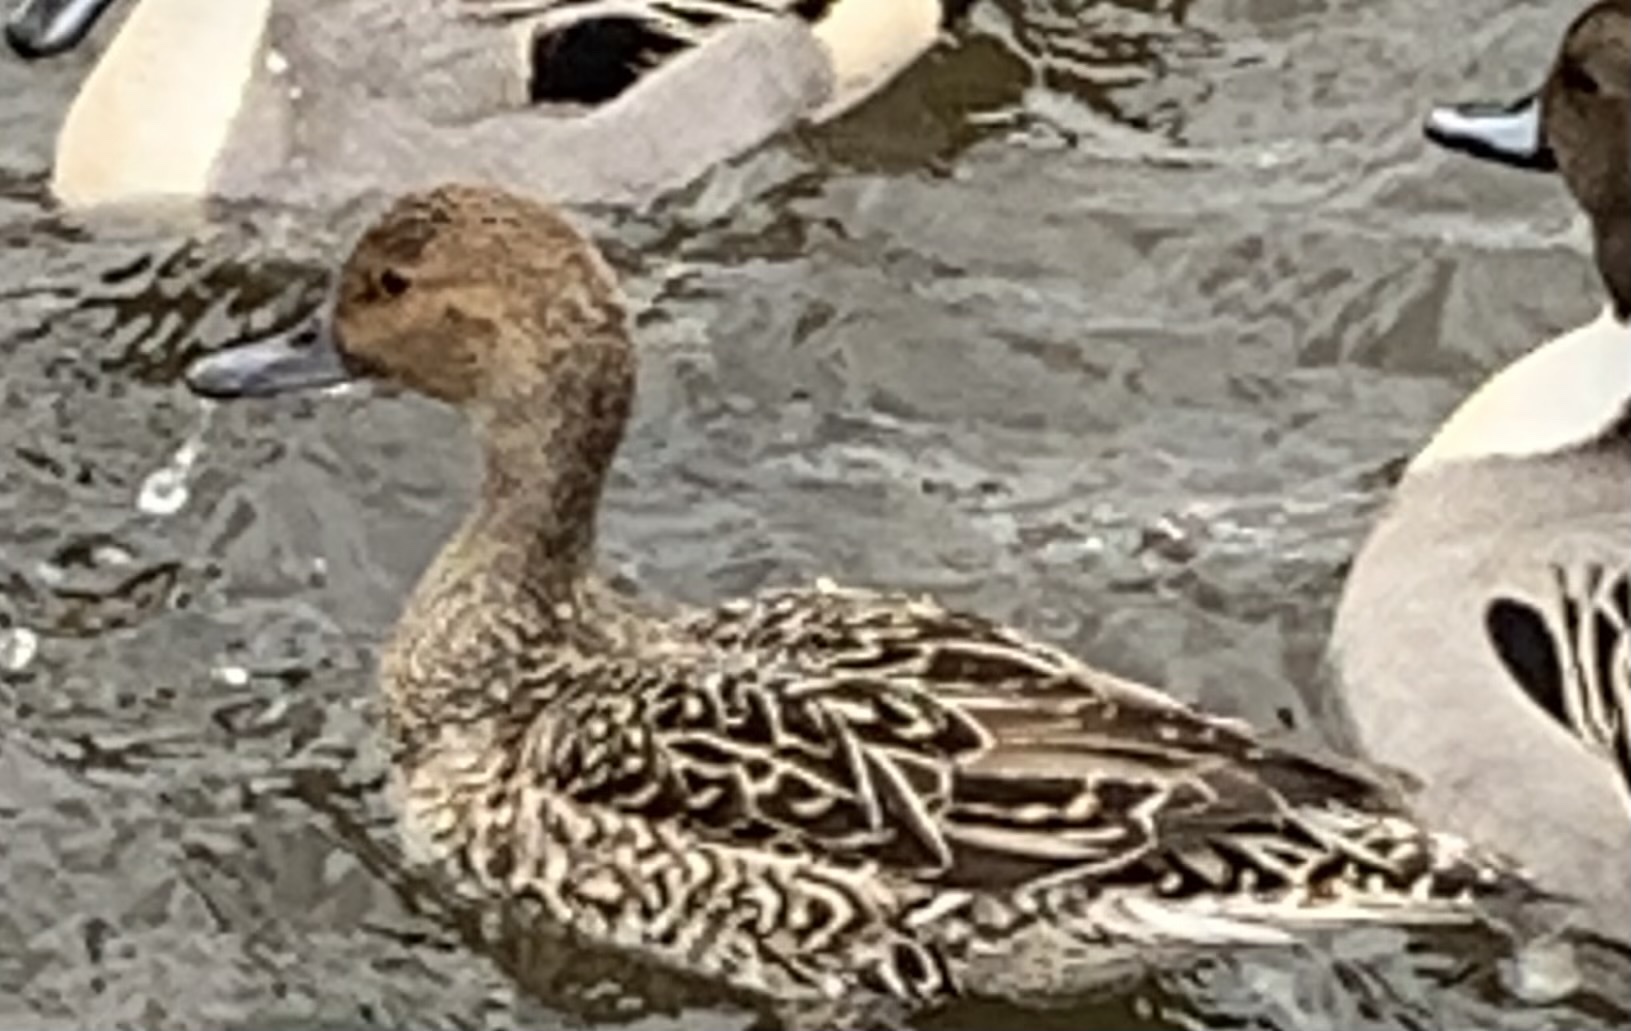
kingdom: Animalia
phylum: Chordata
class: Aves
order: Anseriformes
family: Anatidae
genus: Anas
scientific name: Anas acuta
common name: Northern pintail
